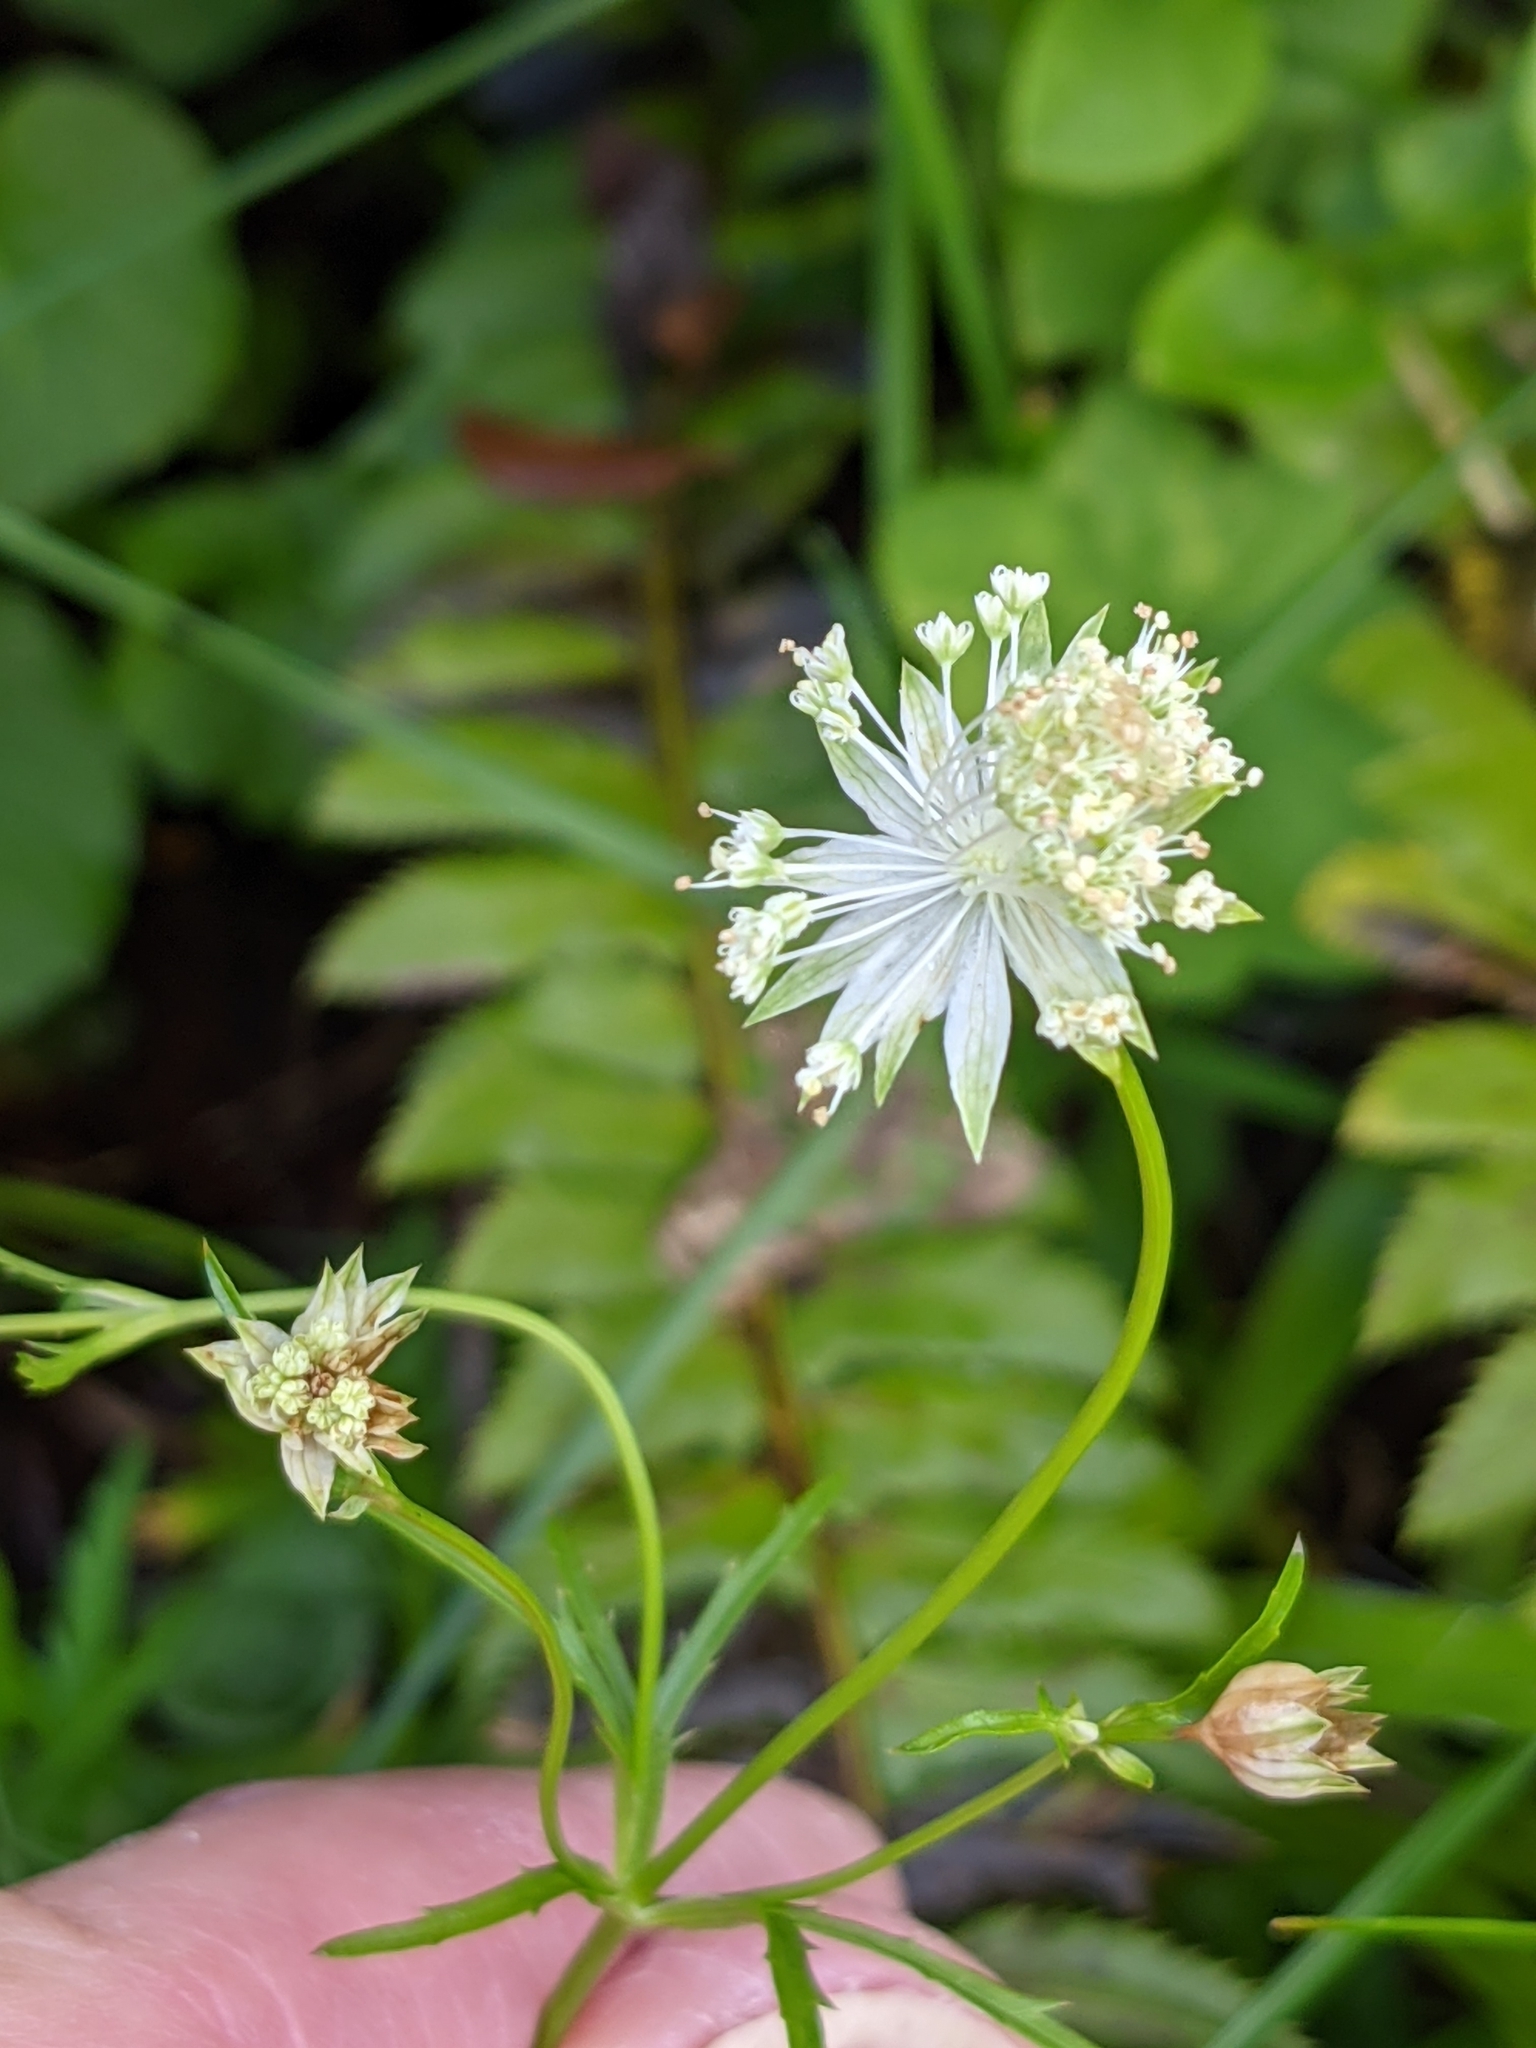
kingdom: Plantae
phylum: Tracheophyta
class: Magnoliopsida
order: Apiales
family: Apiaceae
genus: Astrantia
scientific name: Astrantia minor
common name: Lesser masterwort
